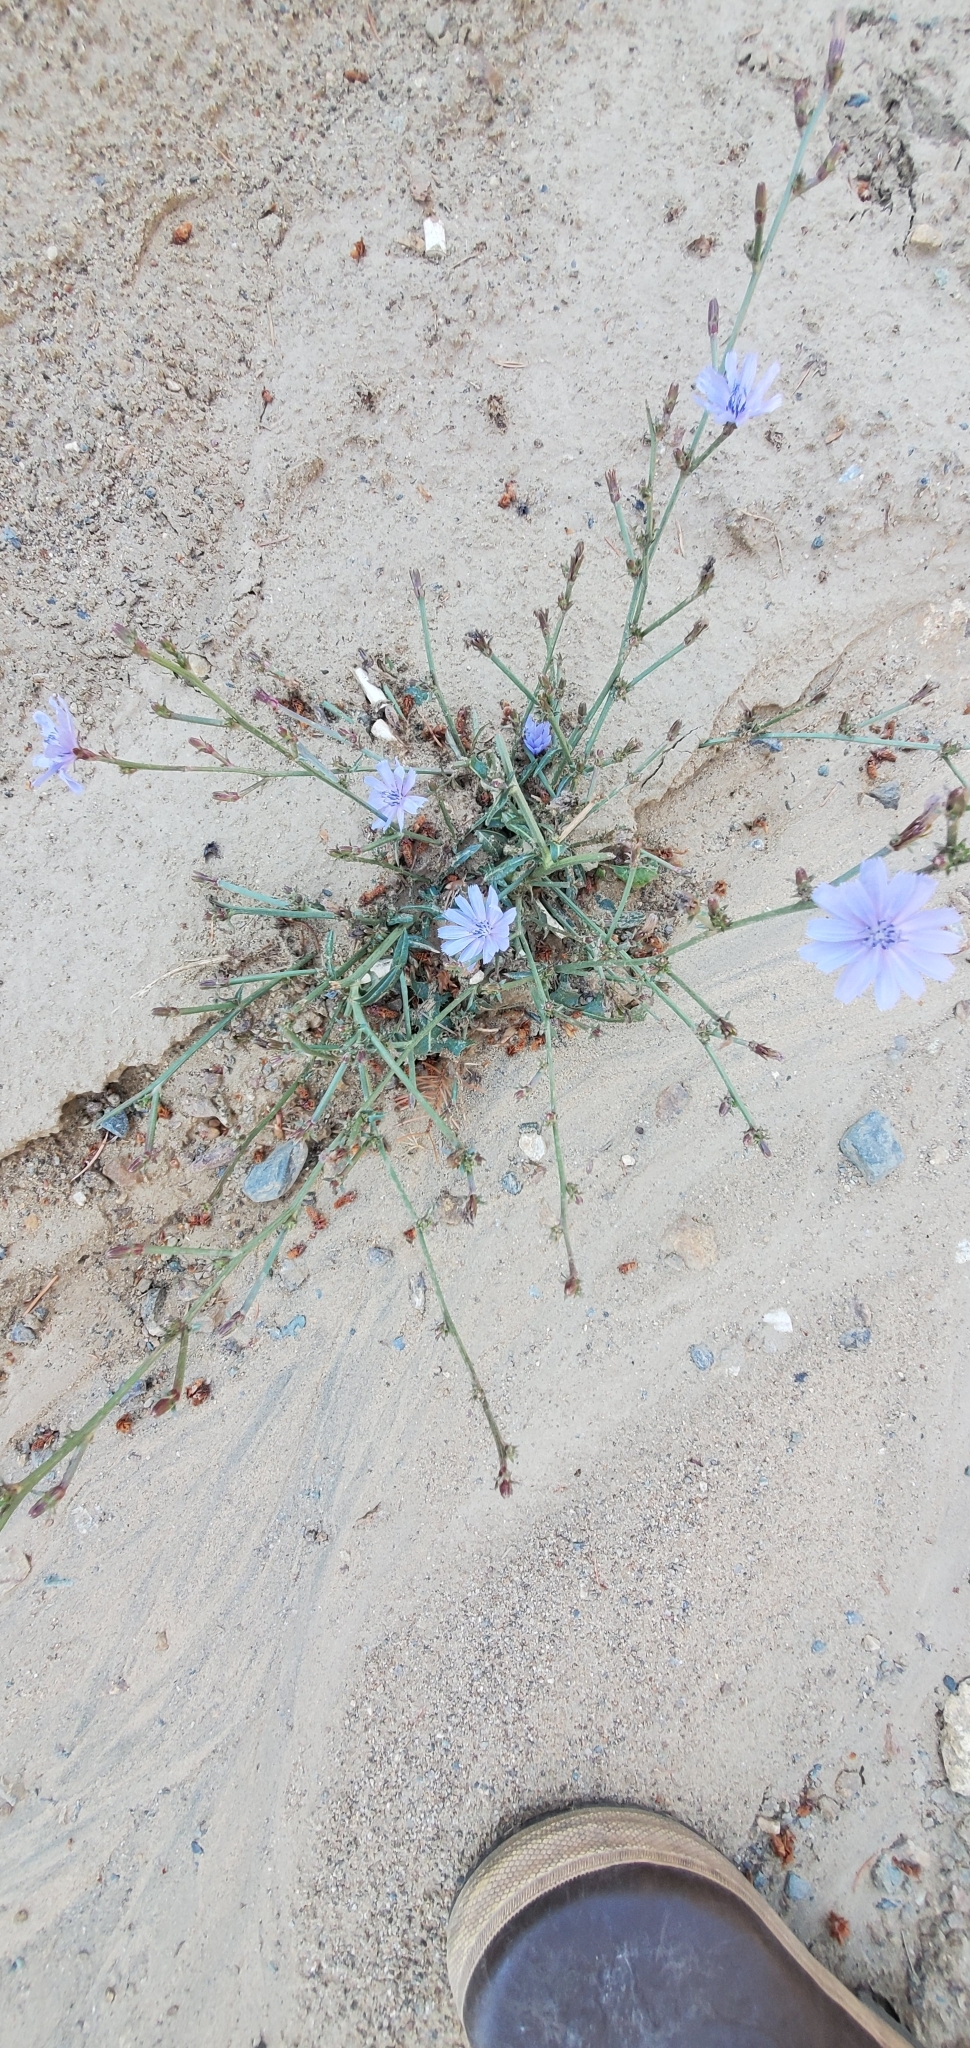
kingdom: Plantae
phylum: Tracheophyta
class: Magnoliopsida
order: Asterales
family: Asteraceae
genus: Cichorium
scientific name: Cichorium intybus
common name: Chicory
